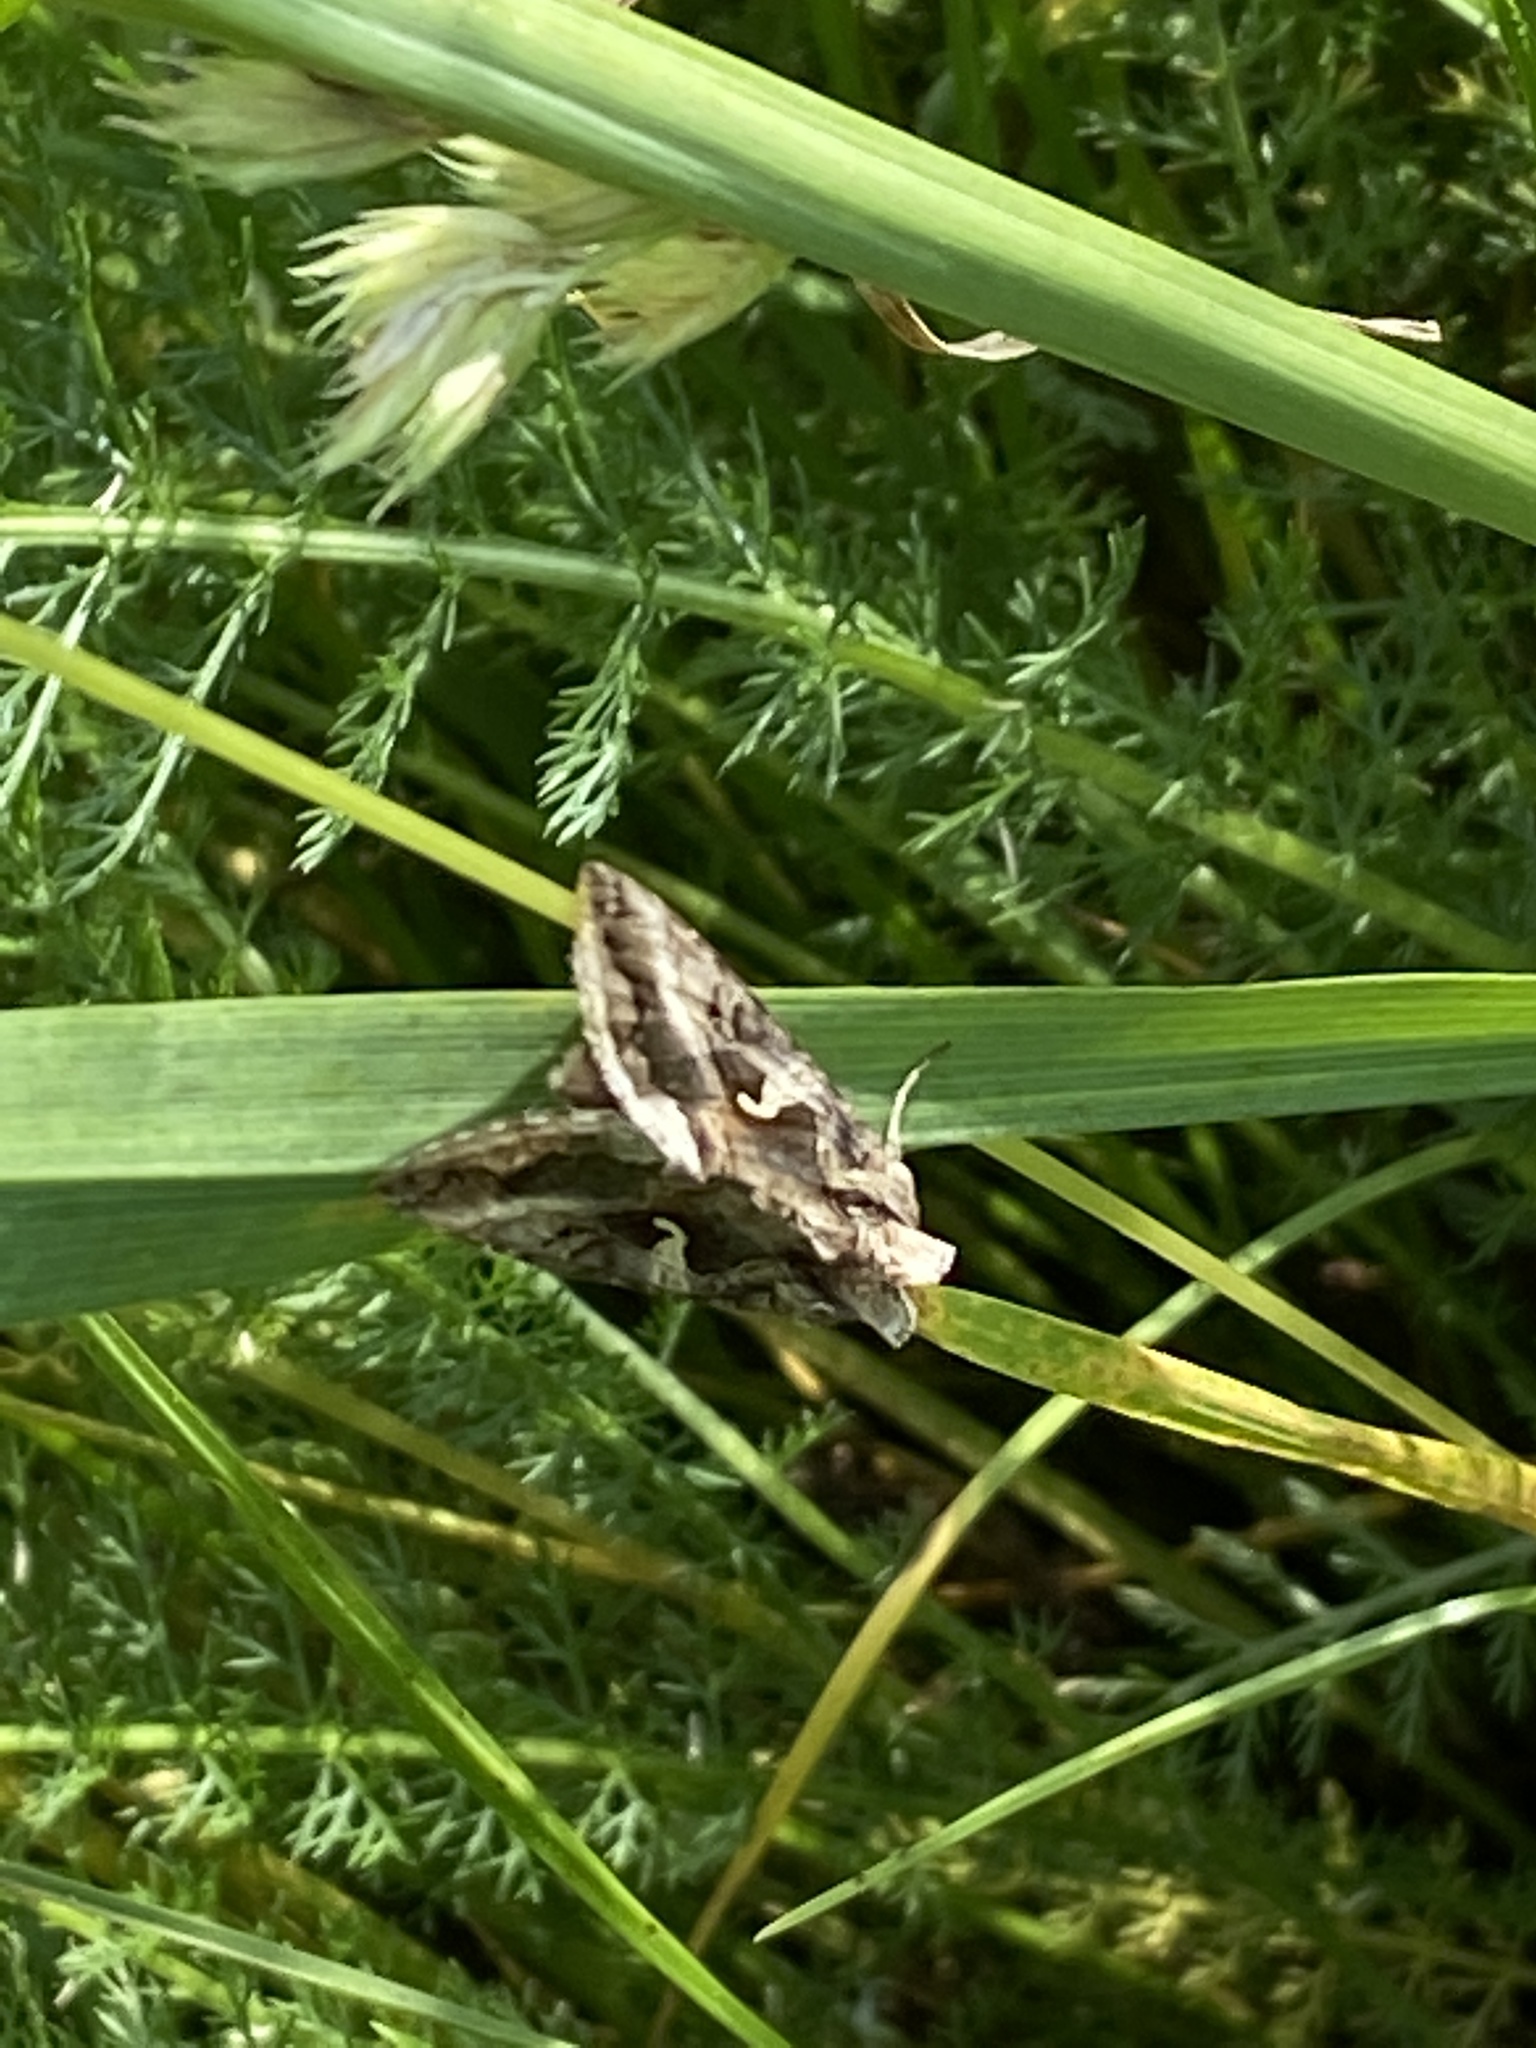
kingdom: Animalia
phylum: Arthropoda
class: Insecta
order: Lepidoptera
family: Noctuidae
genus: Autographa
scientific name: Autographa gamma
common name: Silver y
